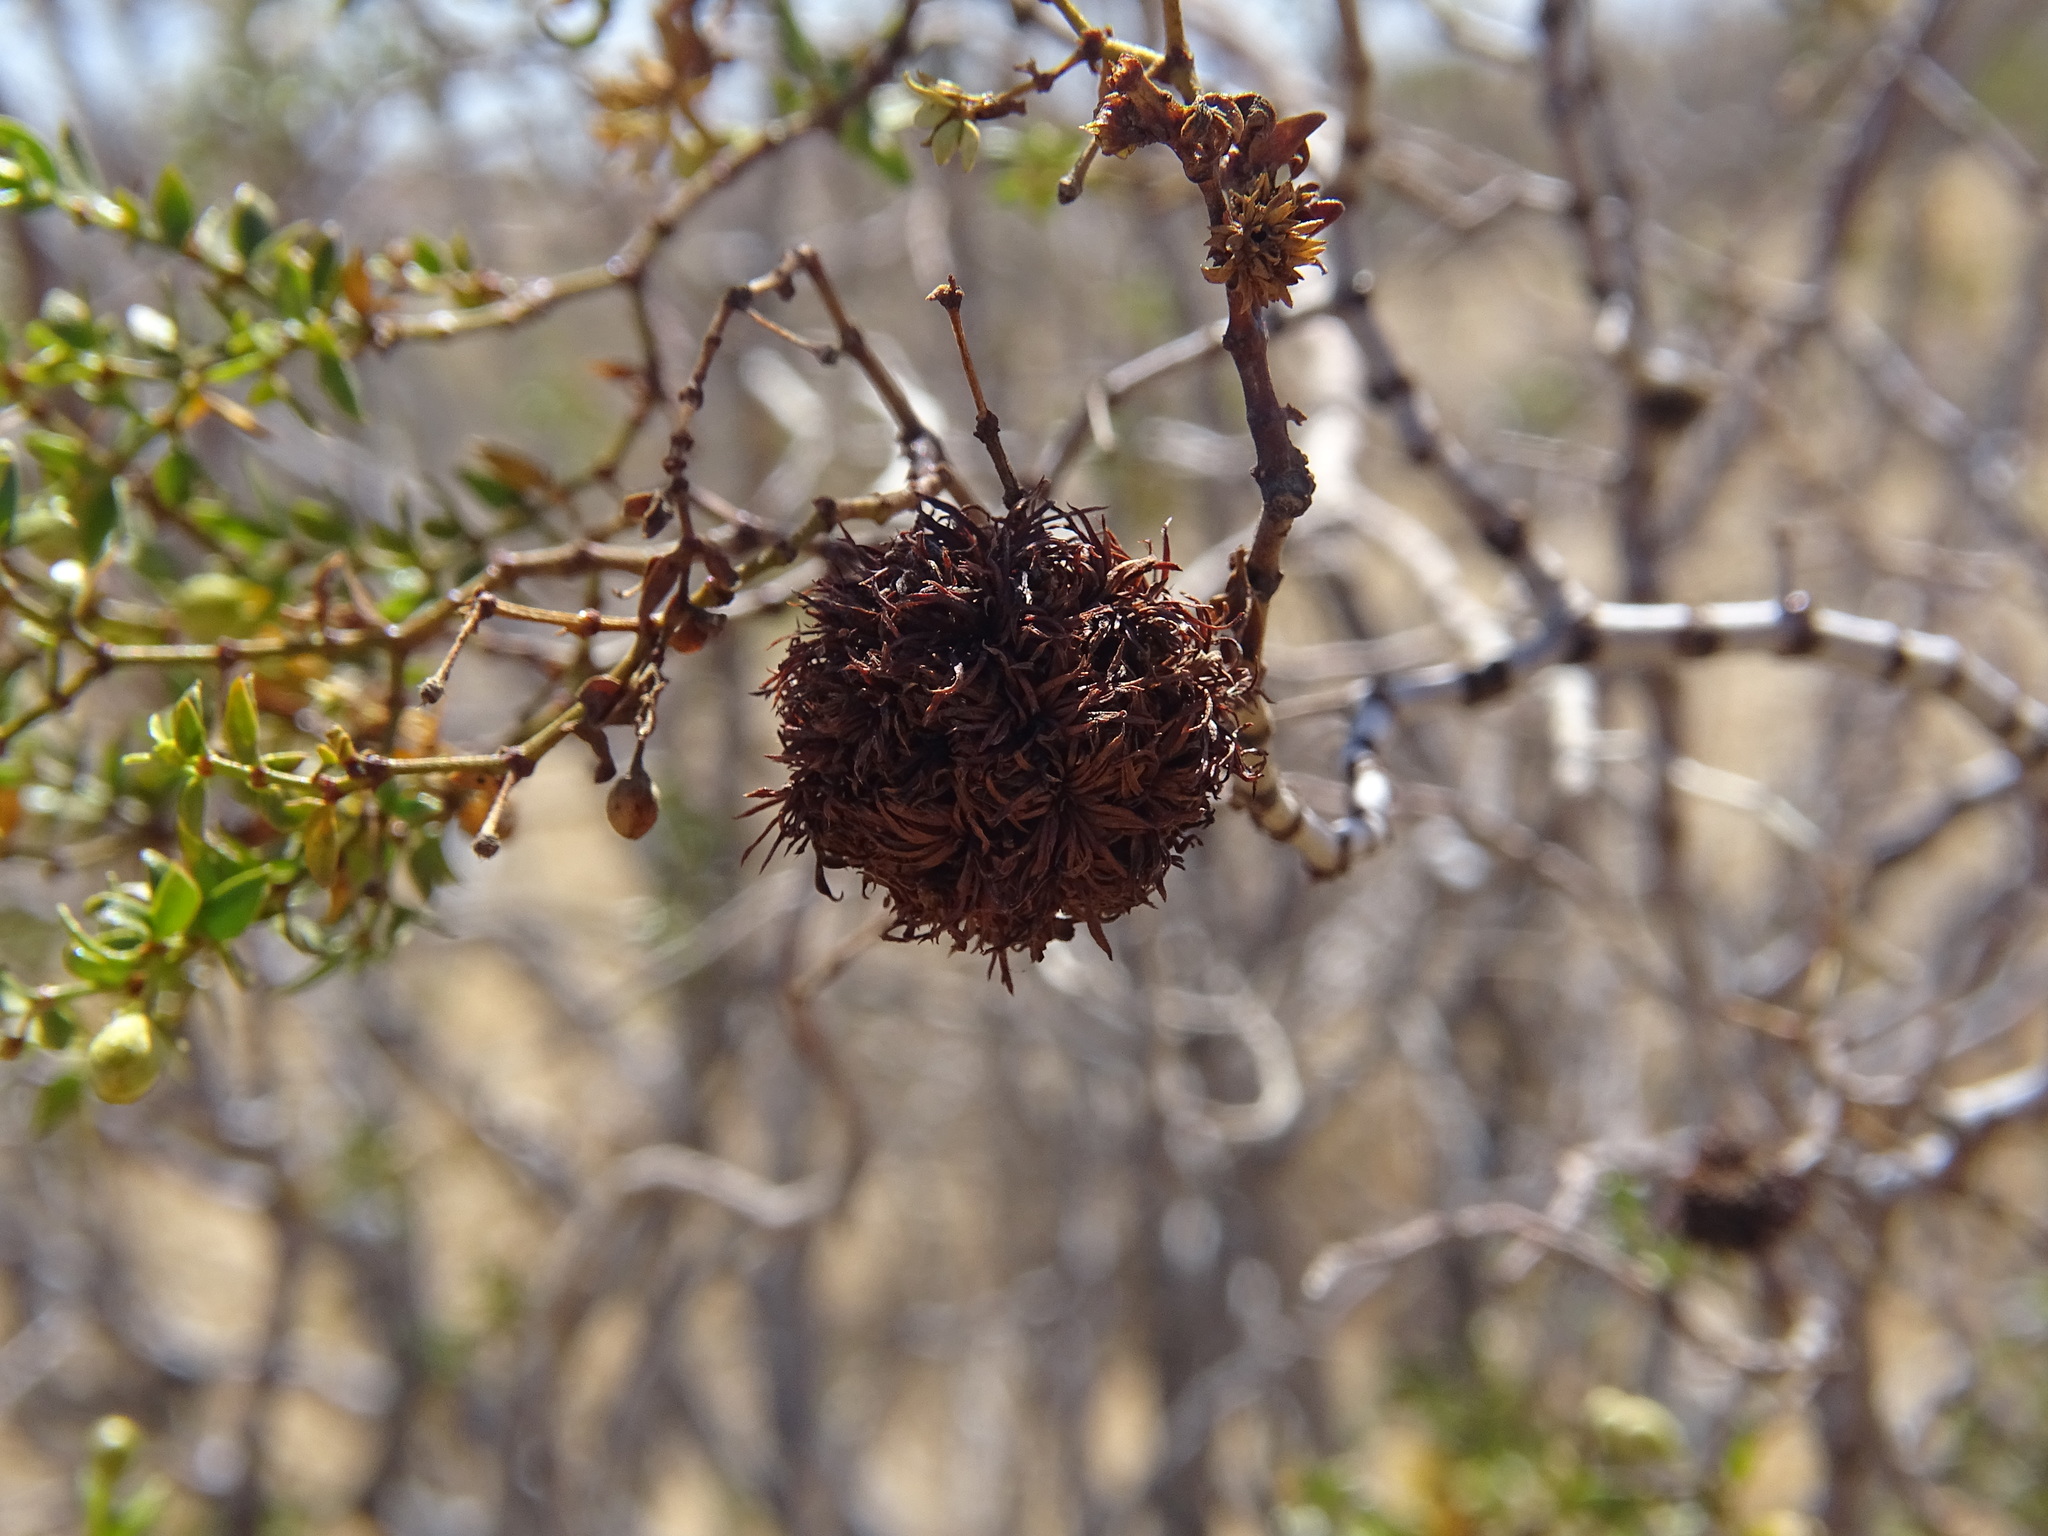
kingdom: Animalia
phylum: Arthropoda
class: Insecta
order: Diptera
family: Cecidomyiidae
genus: Asphondylia
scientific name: Asphondylia auripila
